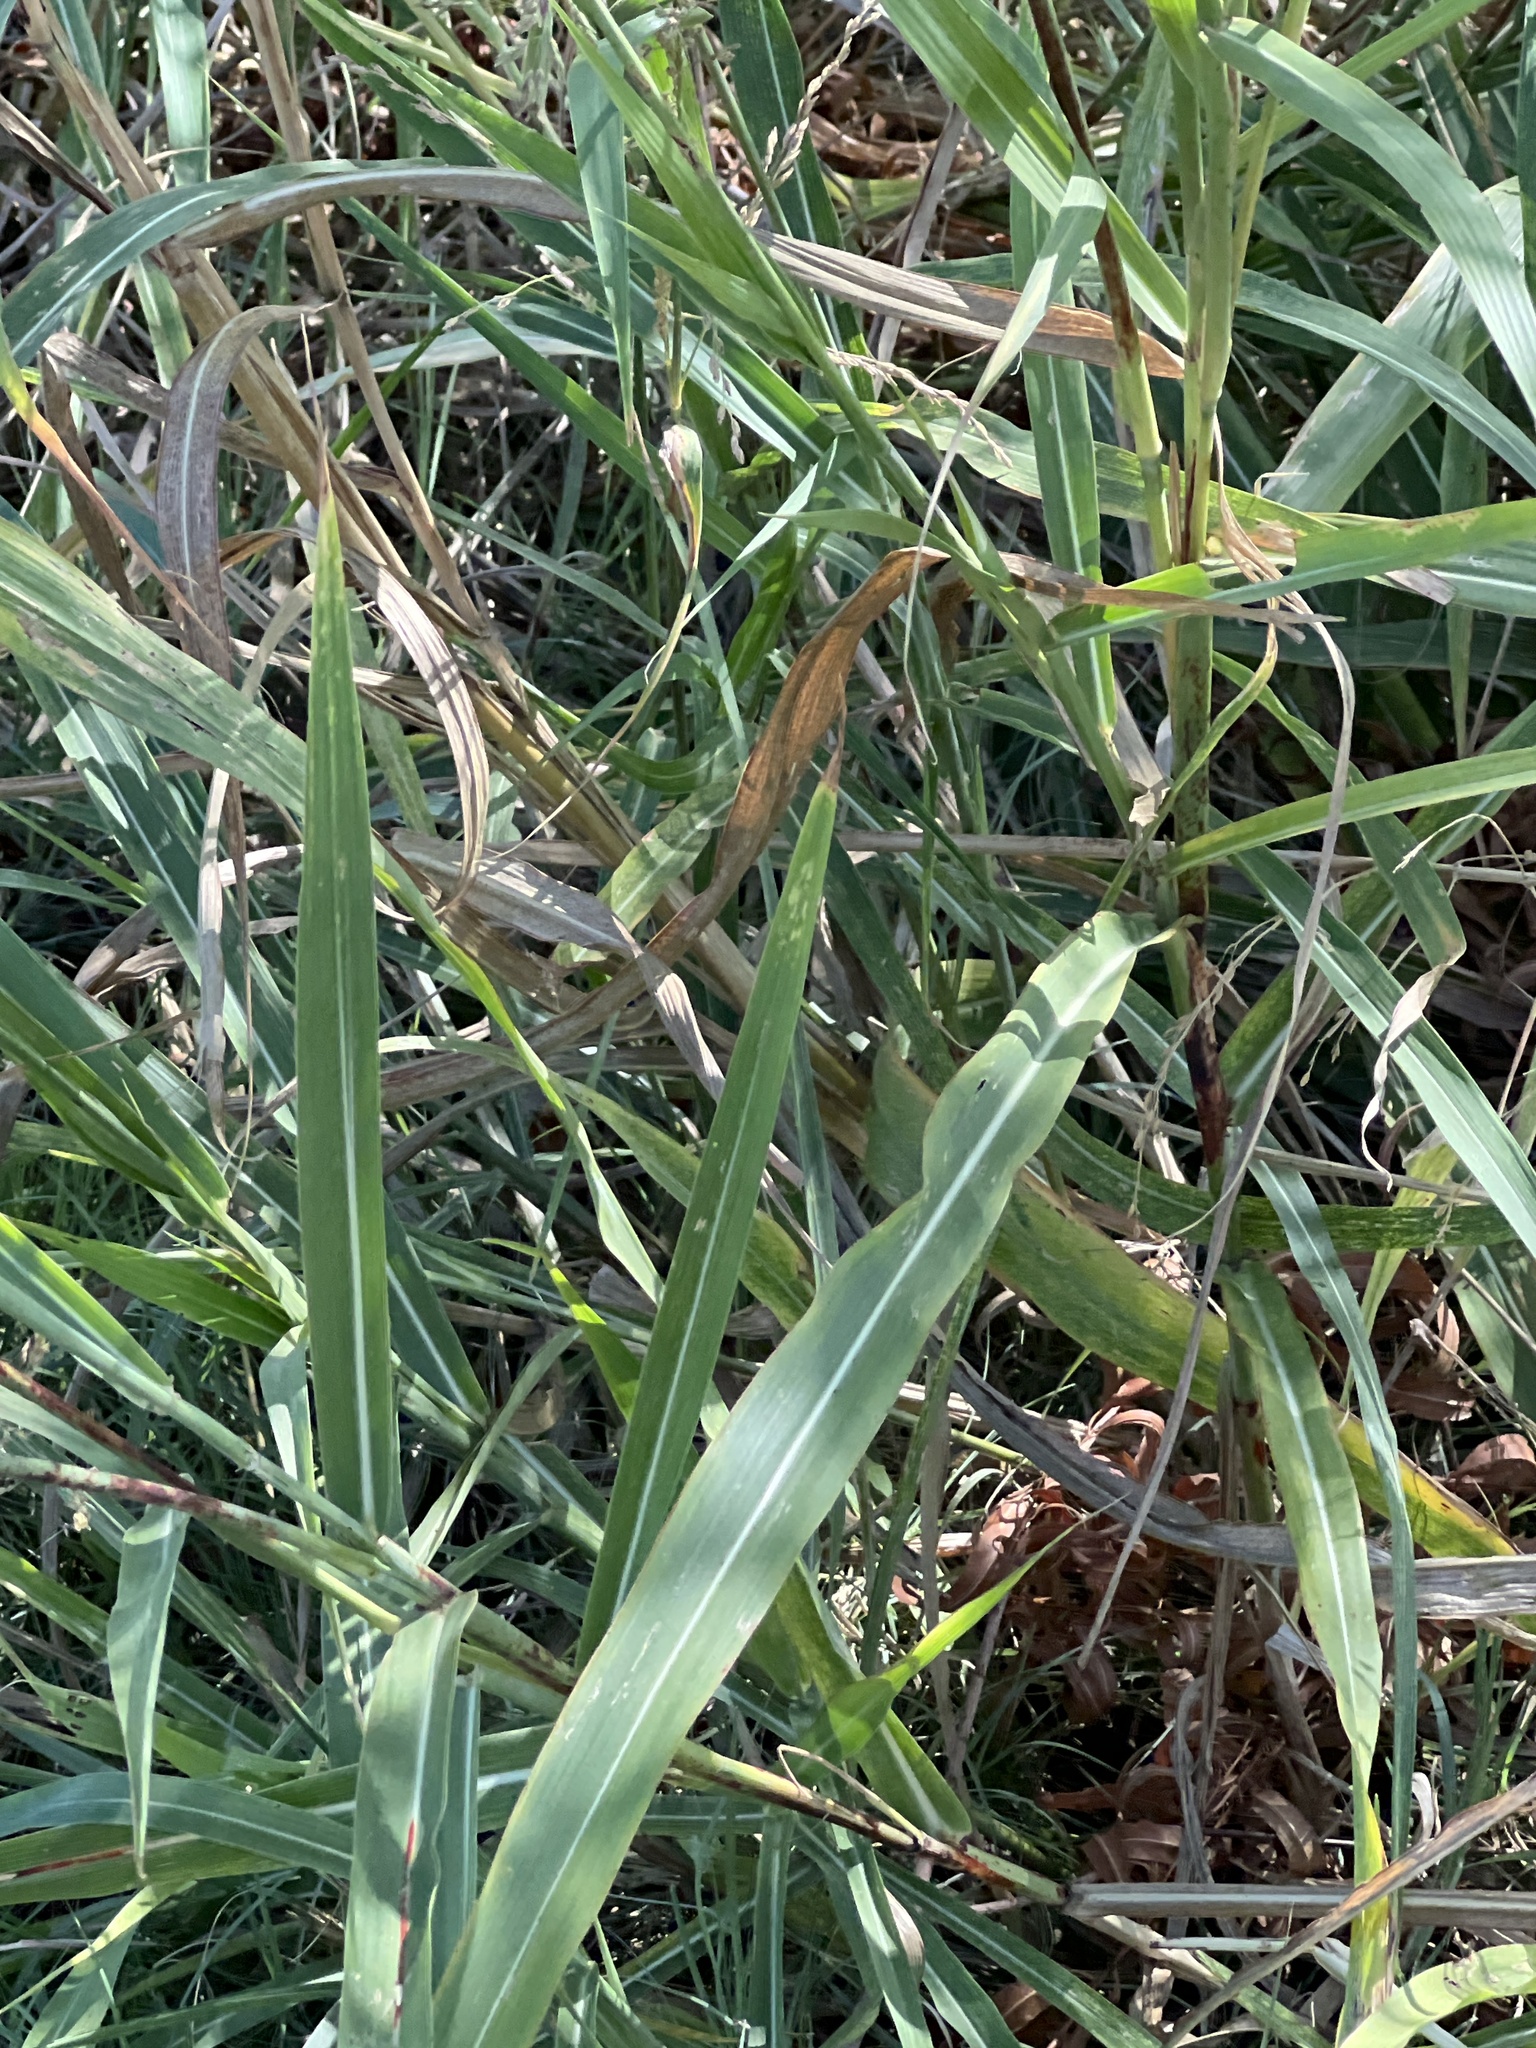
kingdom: Plantae
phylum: Tracheophyta
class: Liliopsida
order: Poales
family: Poaceae
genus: Sorghum
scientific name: Sorghum halepense
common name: Johnson-grass
